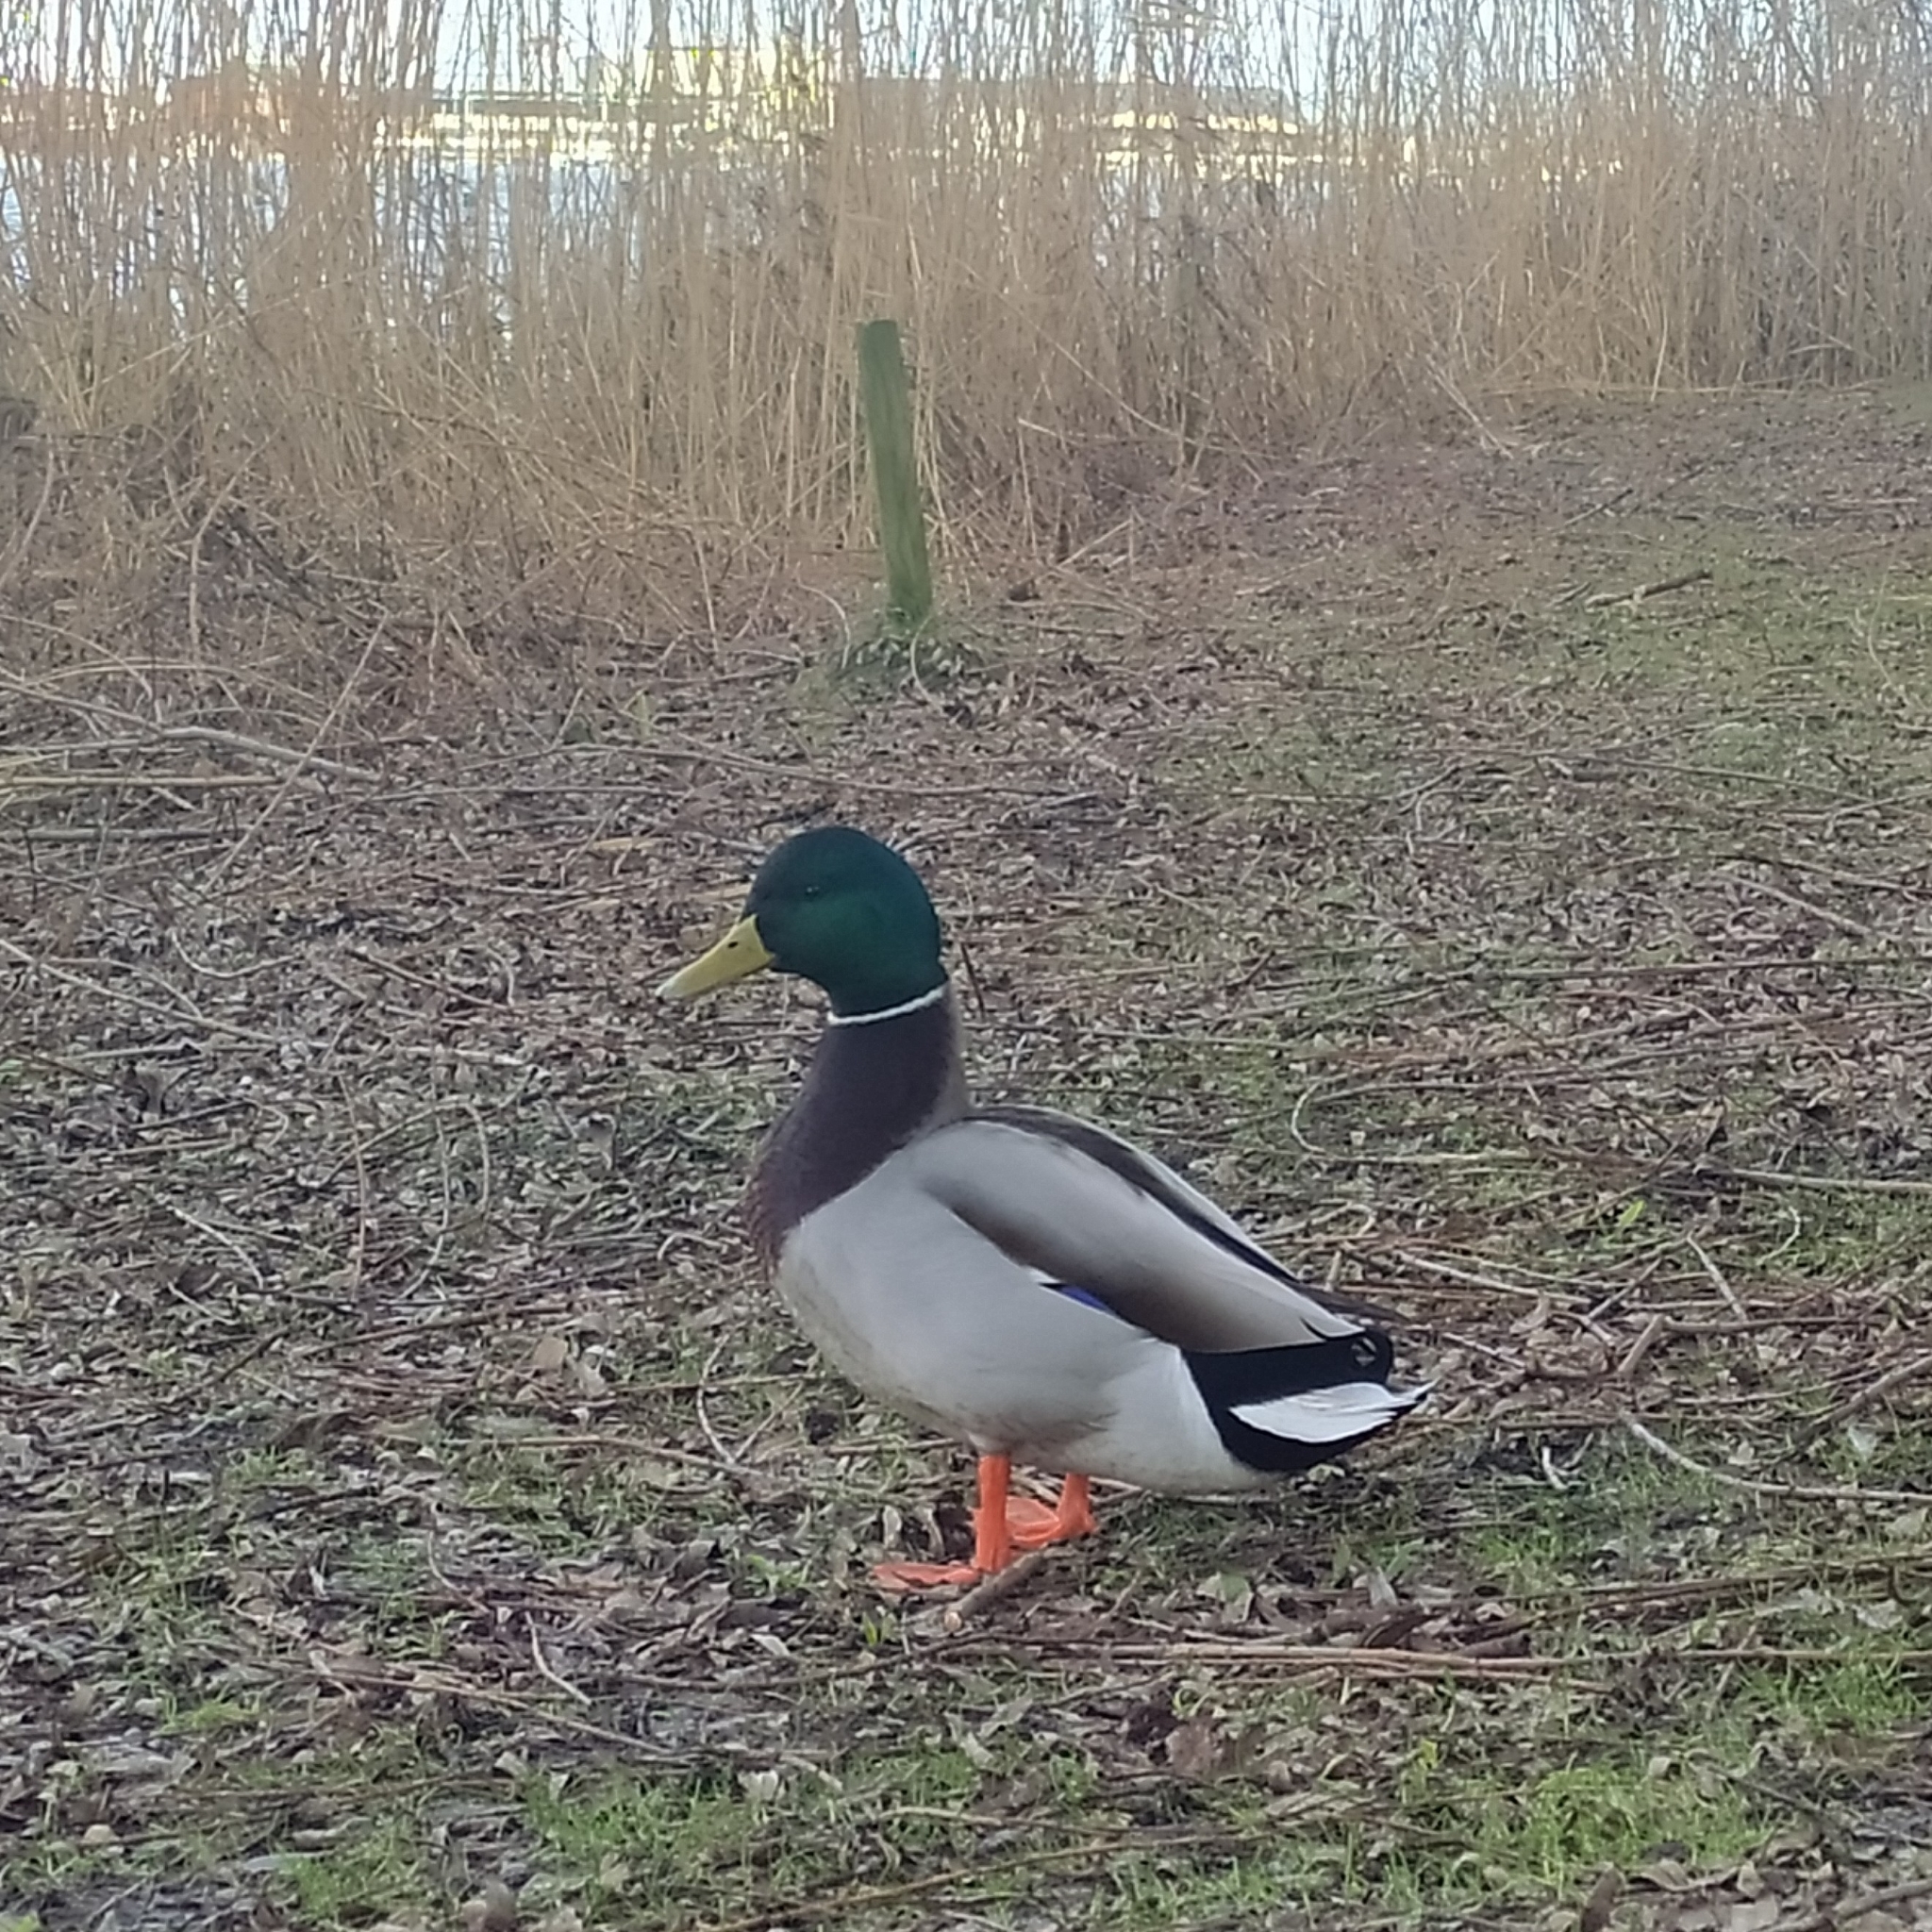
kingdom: Animalia
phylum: Chordata
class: Aves
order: Anseriformes
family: Anatidae
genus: Anas
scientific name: Anas platyrhynchos
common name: Mallard
